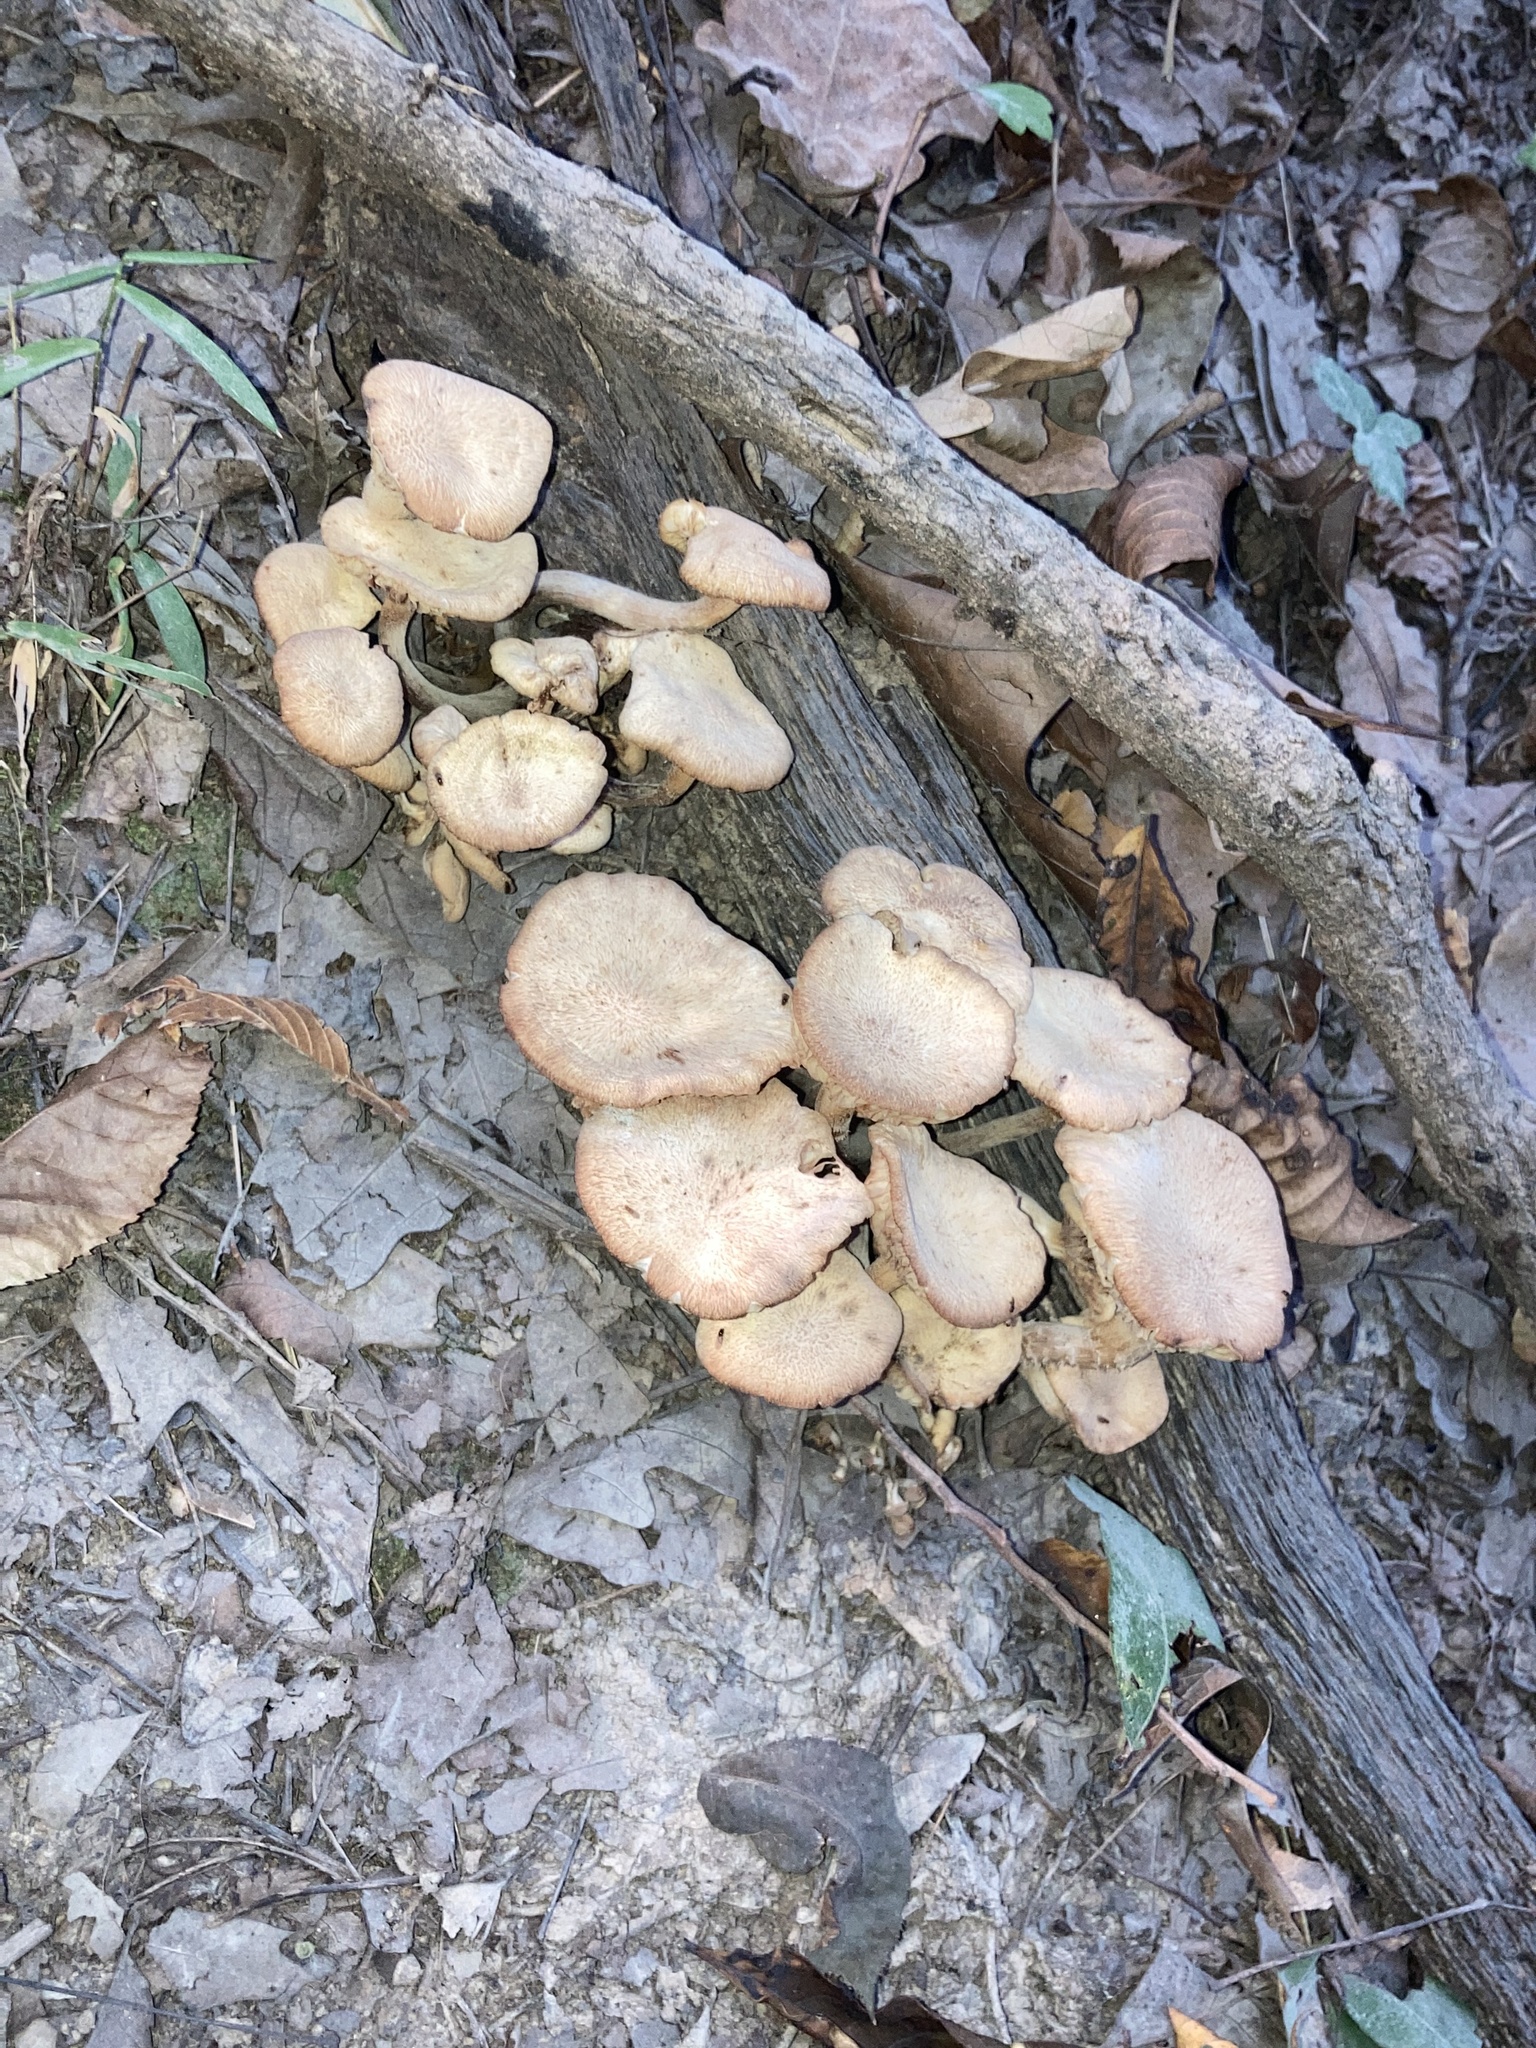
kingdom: Fungi
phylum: Basidiomycota
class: Agaricomycetes
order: Agaricales
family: Physalacriaceae
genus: Desarmillaria
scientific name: Desarmillaria caespitosa
